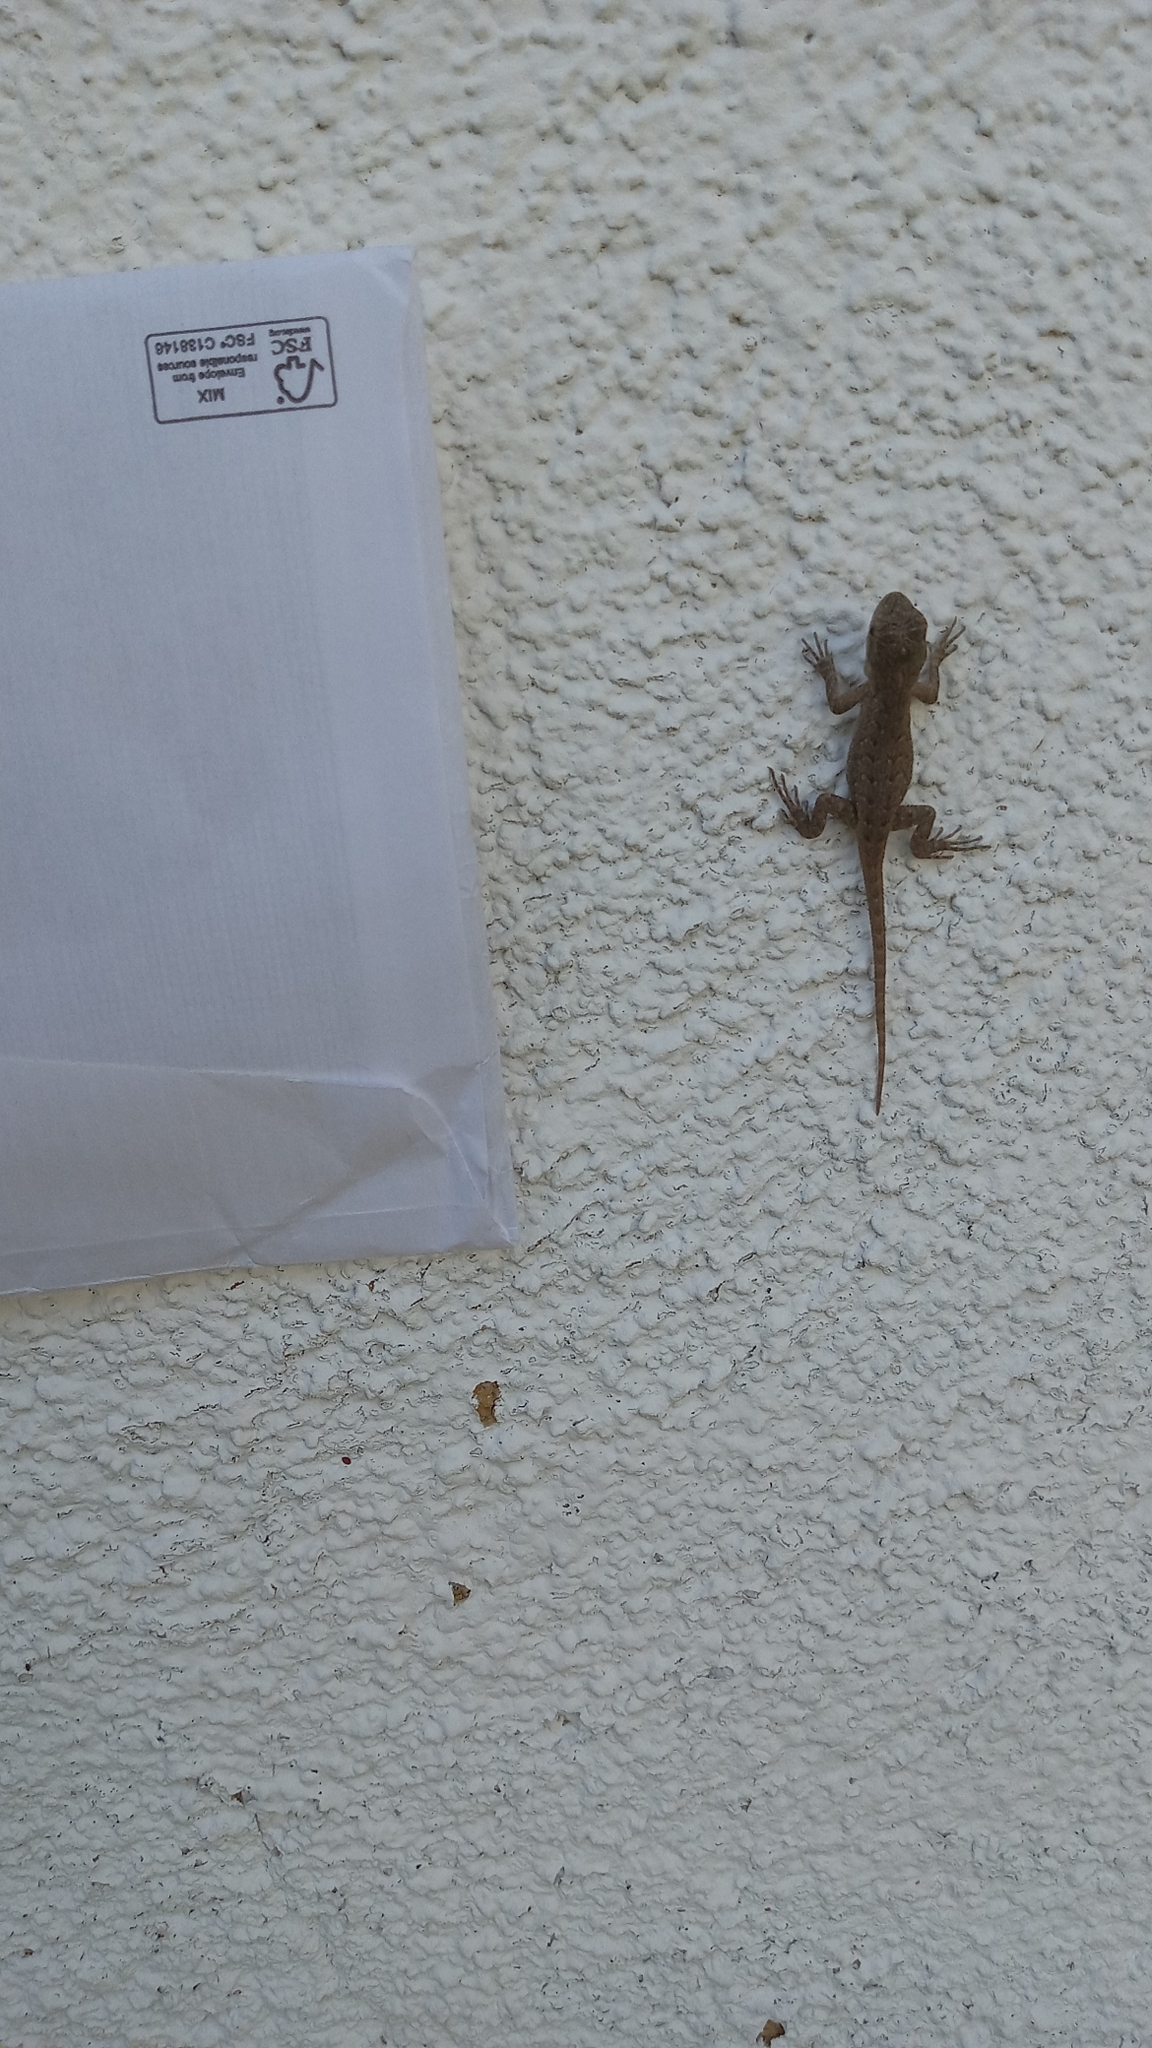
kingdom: Animalia
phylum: Chordata
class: Squamata
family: Phrynosomatidae
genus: Sceloporus
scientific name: Sceloporus occidentalis
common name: Western fence lizard
